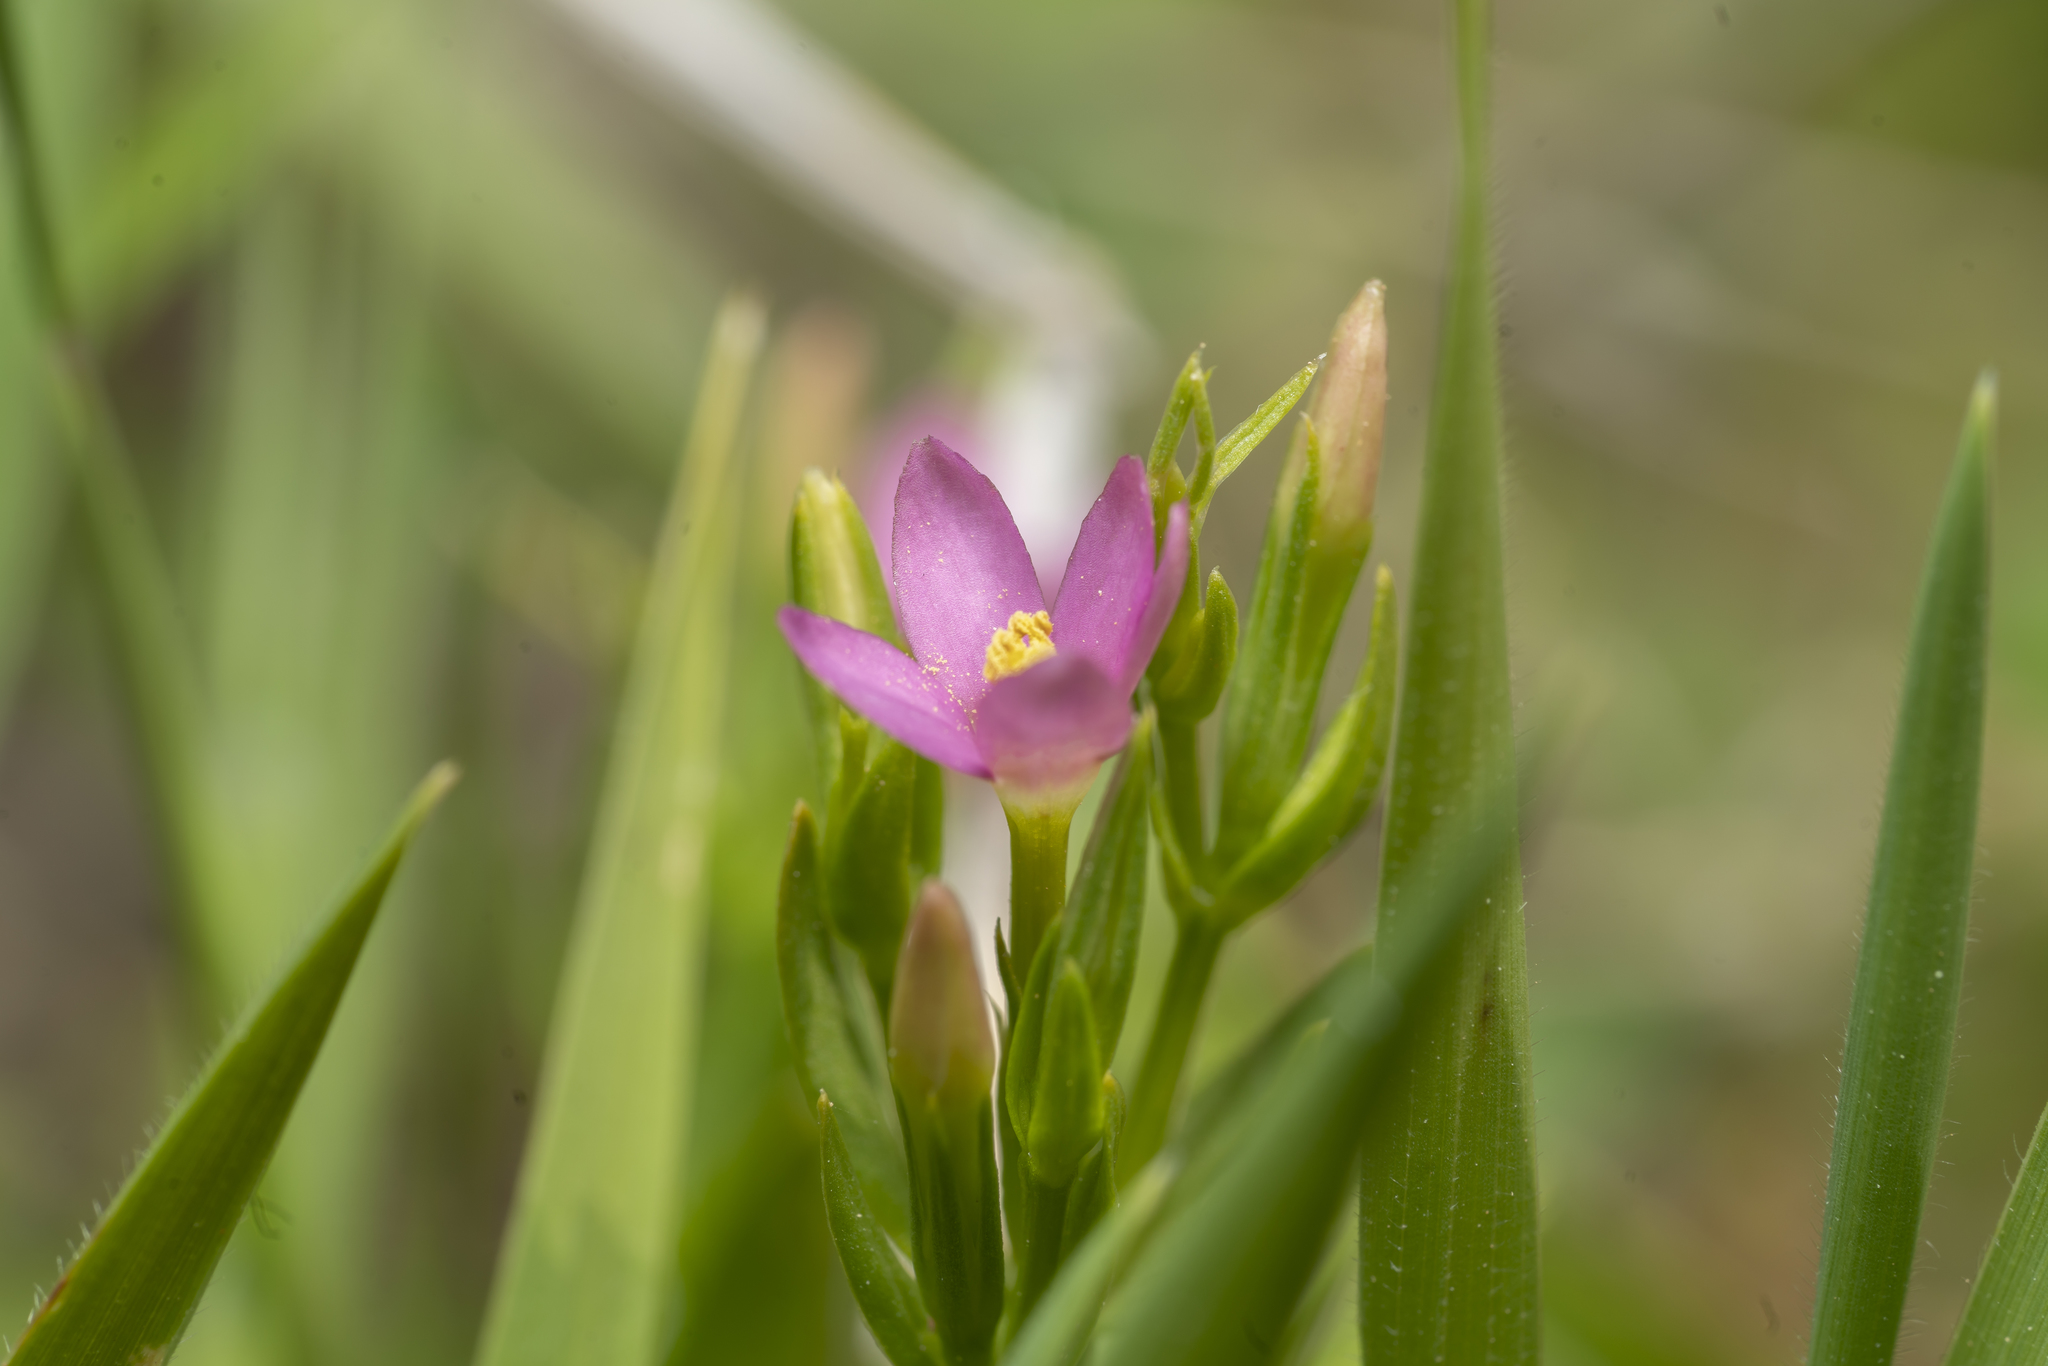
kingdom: Plantae
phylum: Tracheophyta
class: Magnoliopsida
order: Gentianales
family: Gentianaceae
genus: Centaurium
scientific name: Centaurium erythraea
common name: Common centaury
